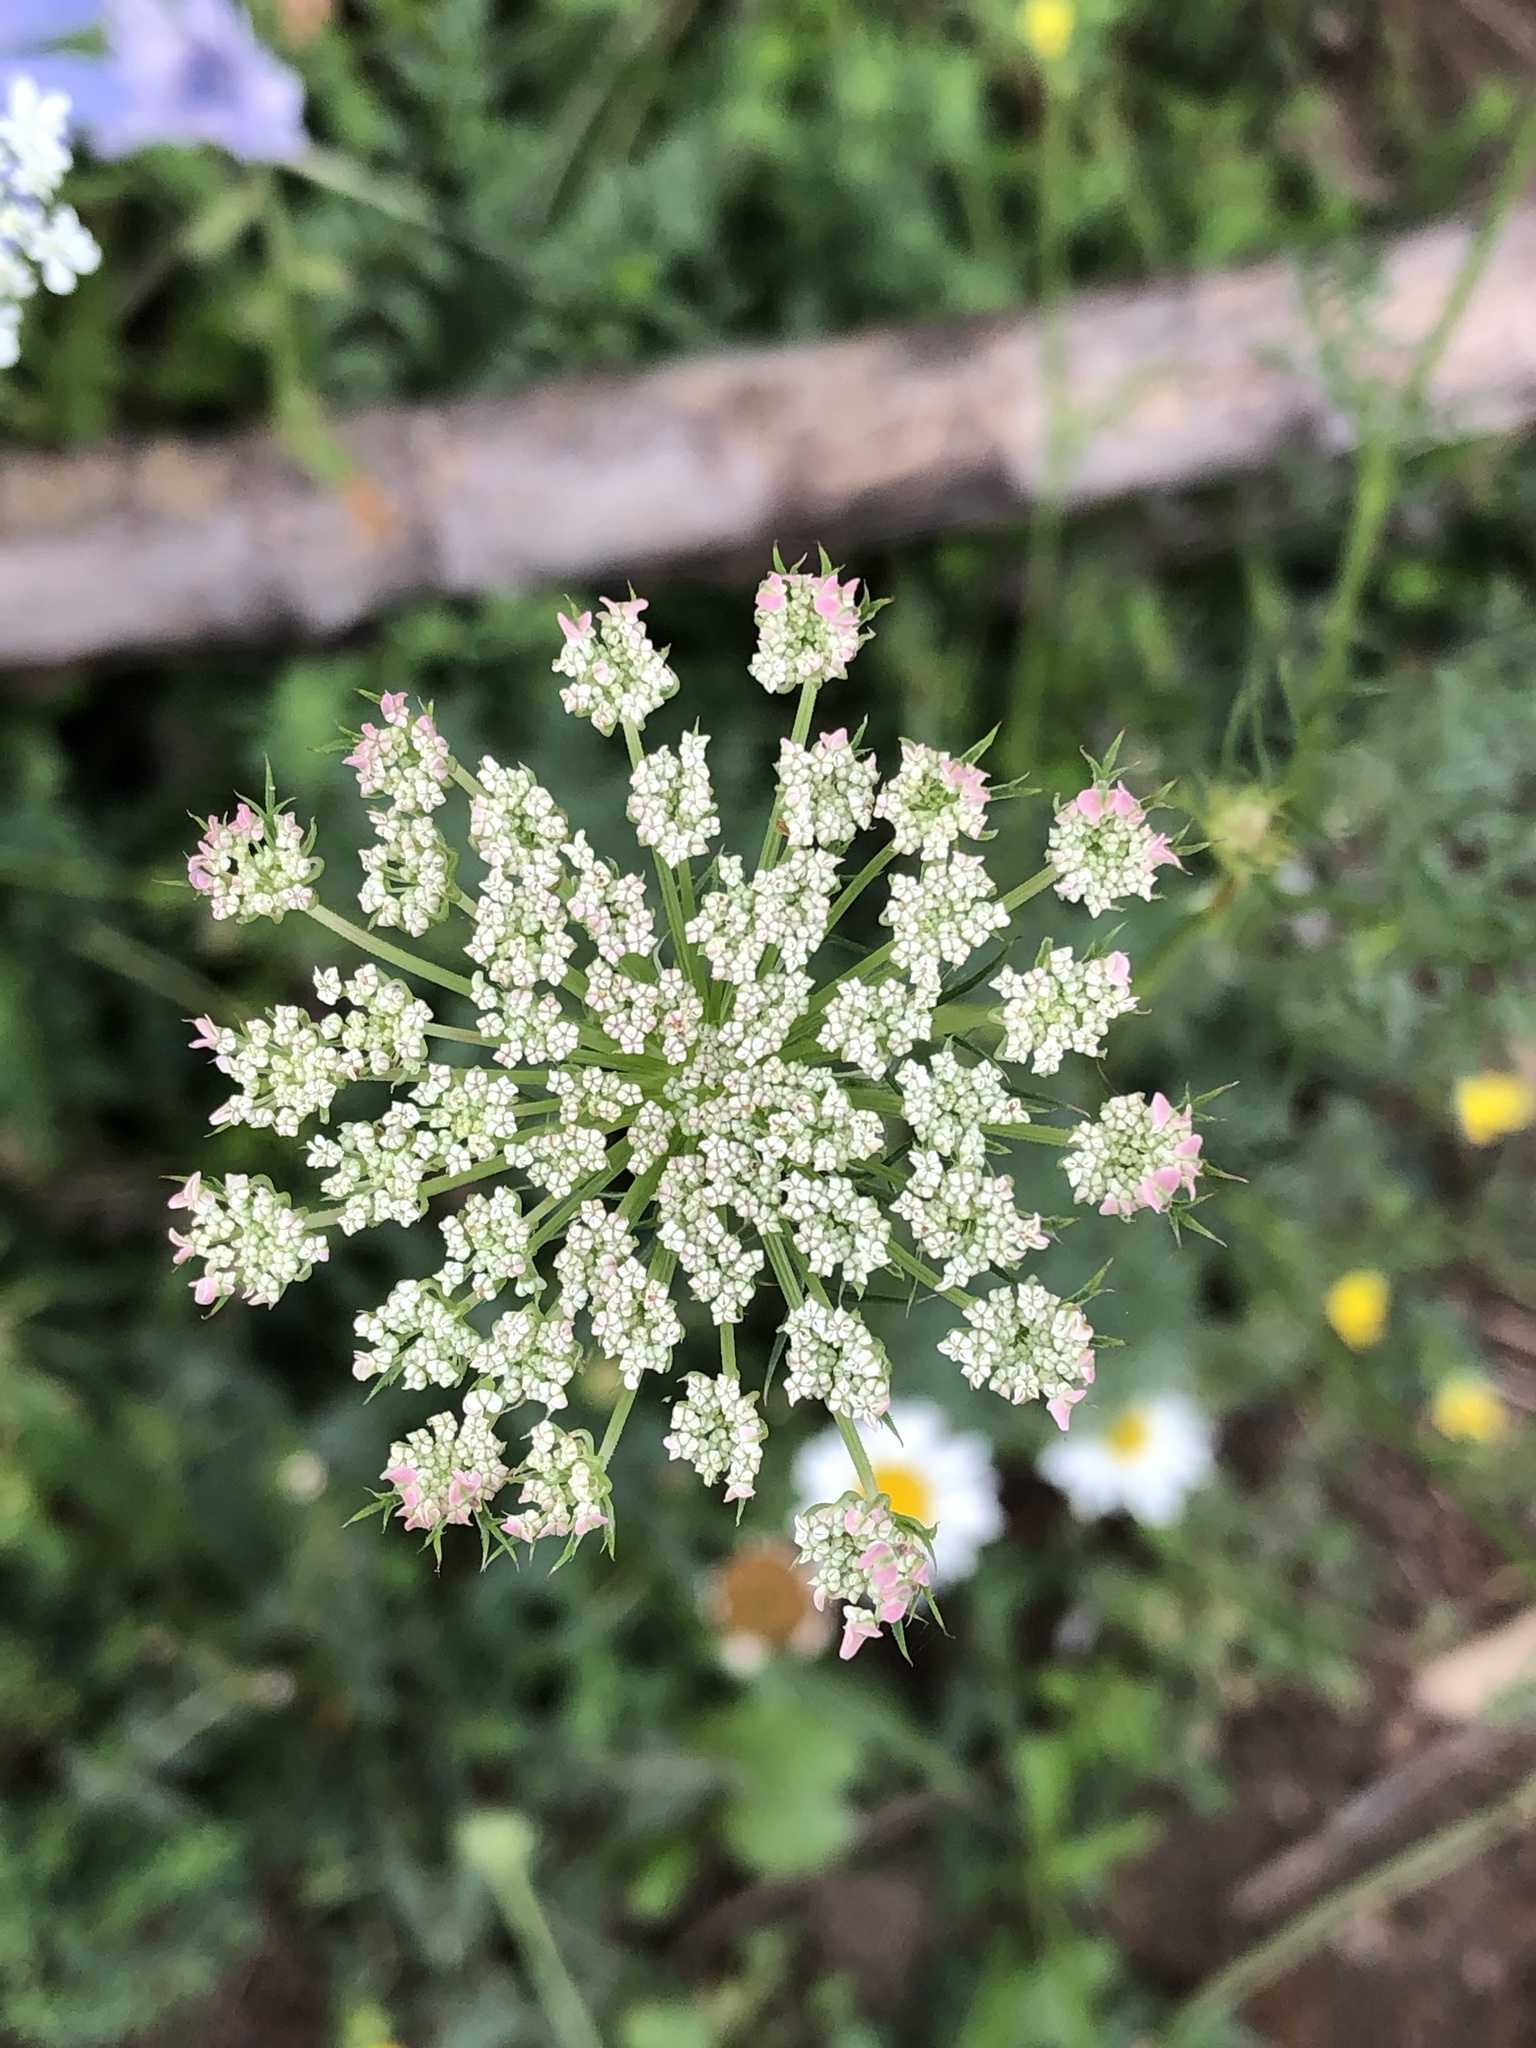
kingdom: Plantae
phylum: Tracheophyta
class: Magnoliopsida
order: Apiales
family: Apiaceae
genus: Daucus
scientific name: Daucus carota
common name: Wild carrot
